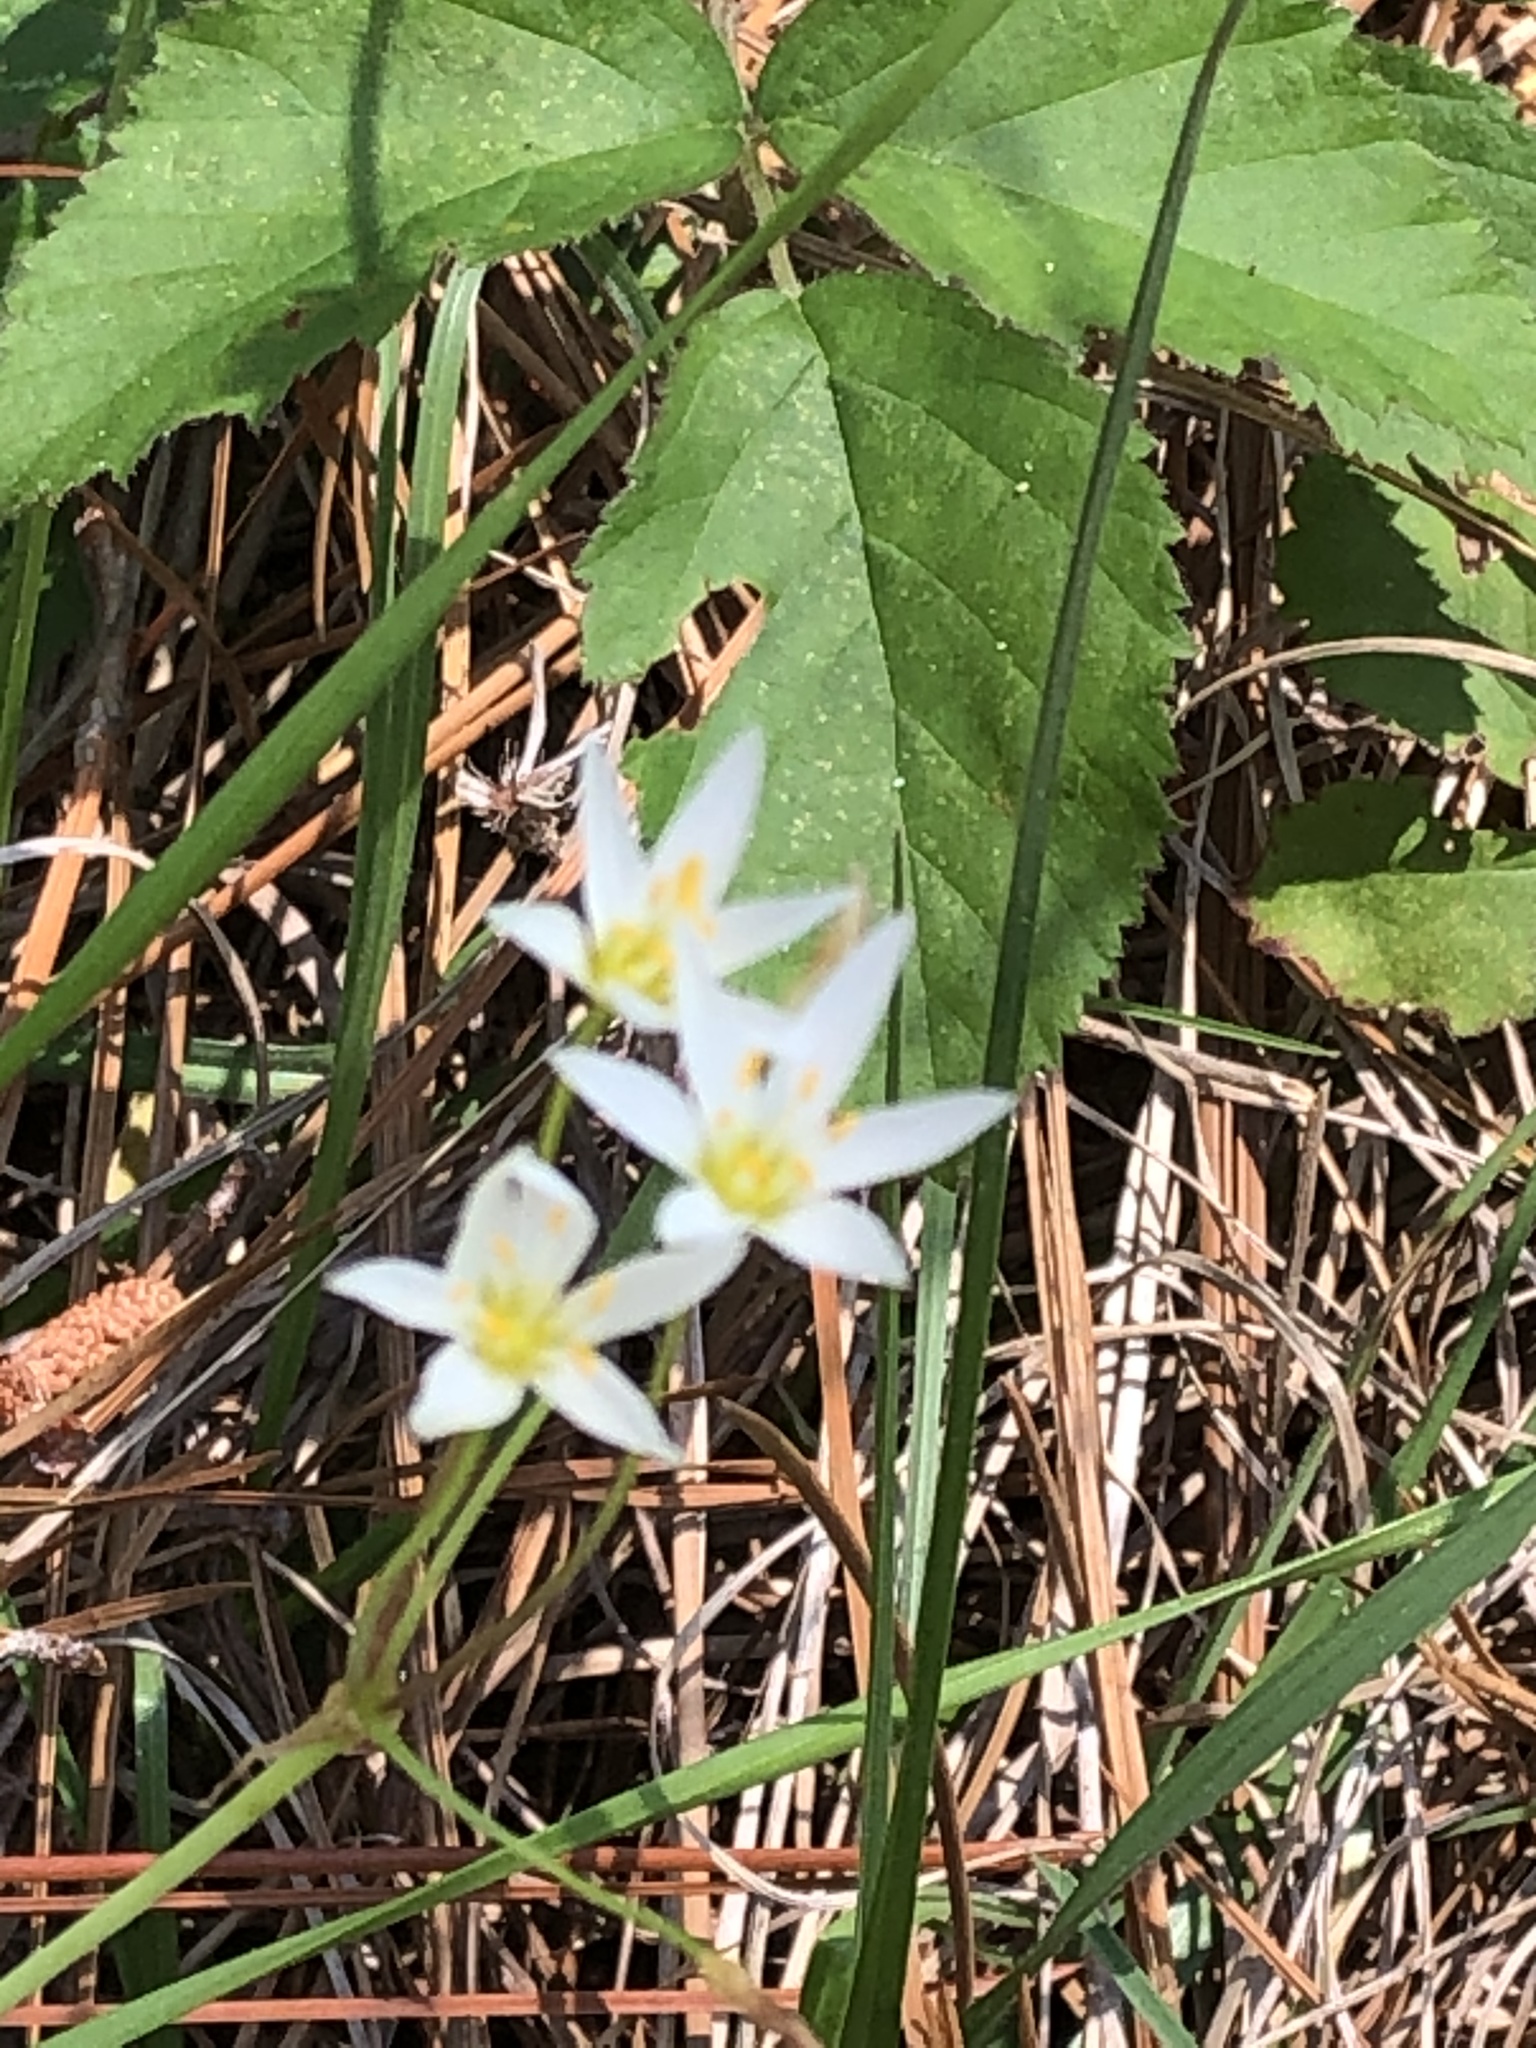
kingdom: Plantae
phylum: Tracheophyta
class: Liliopsida
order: Asparagales
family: Amaryllidaceae
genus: Nothoscordum
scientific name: Nothoscordum bivalve
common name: Crow-poison
